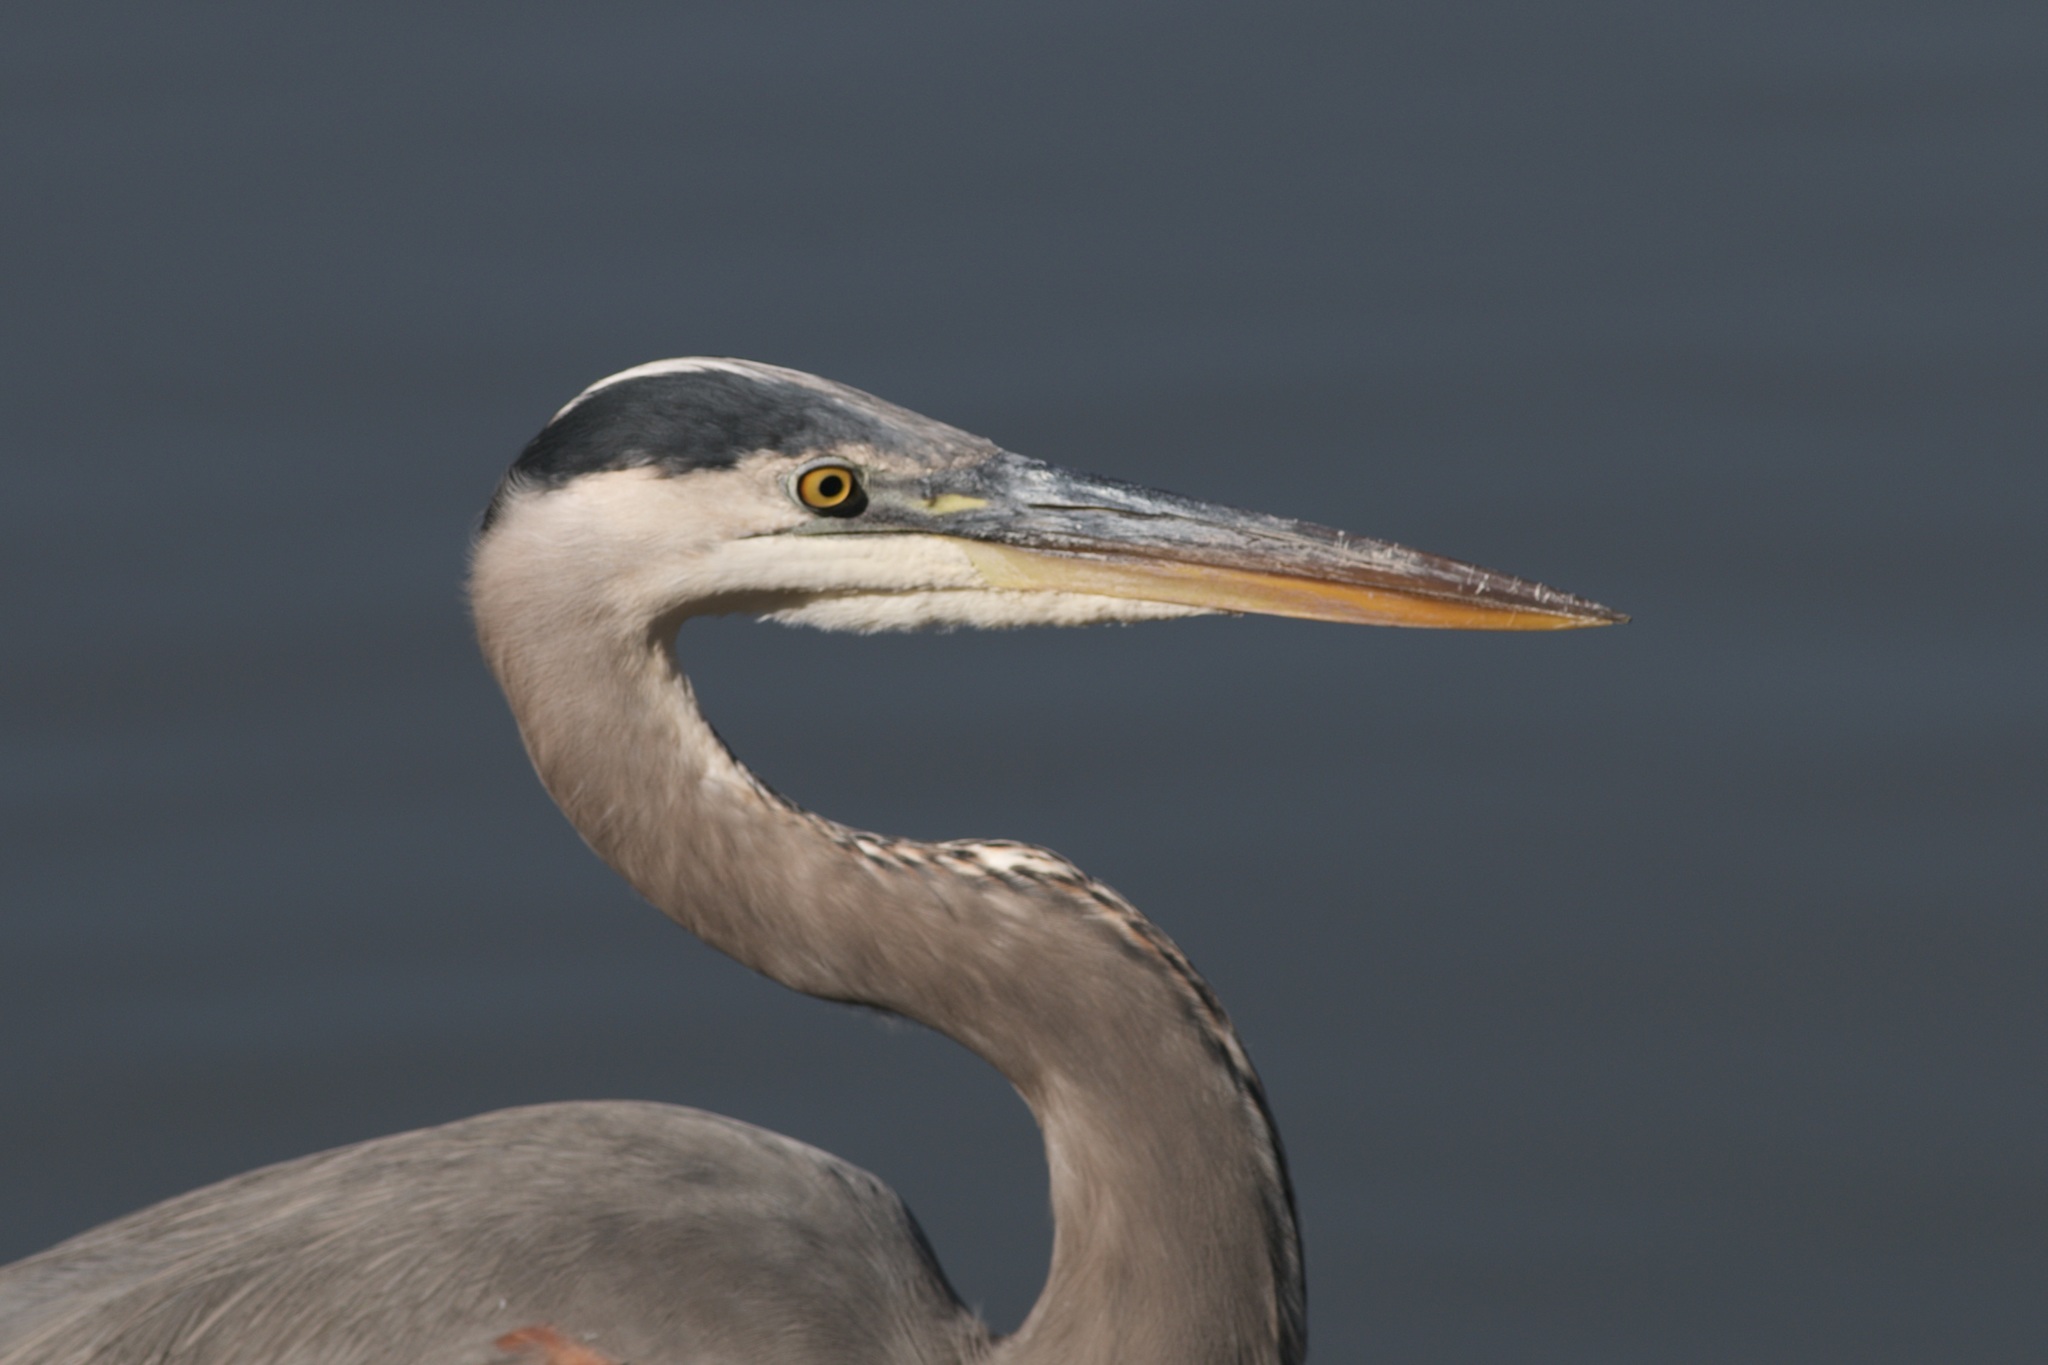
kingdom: Animalia
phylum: Chordata
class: Aves
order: Pelecaniformes
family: Ardeidae
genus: Ardea
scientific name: Ardea herodias
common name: Great blue heron
